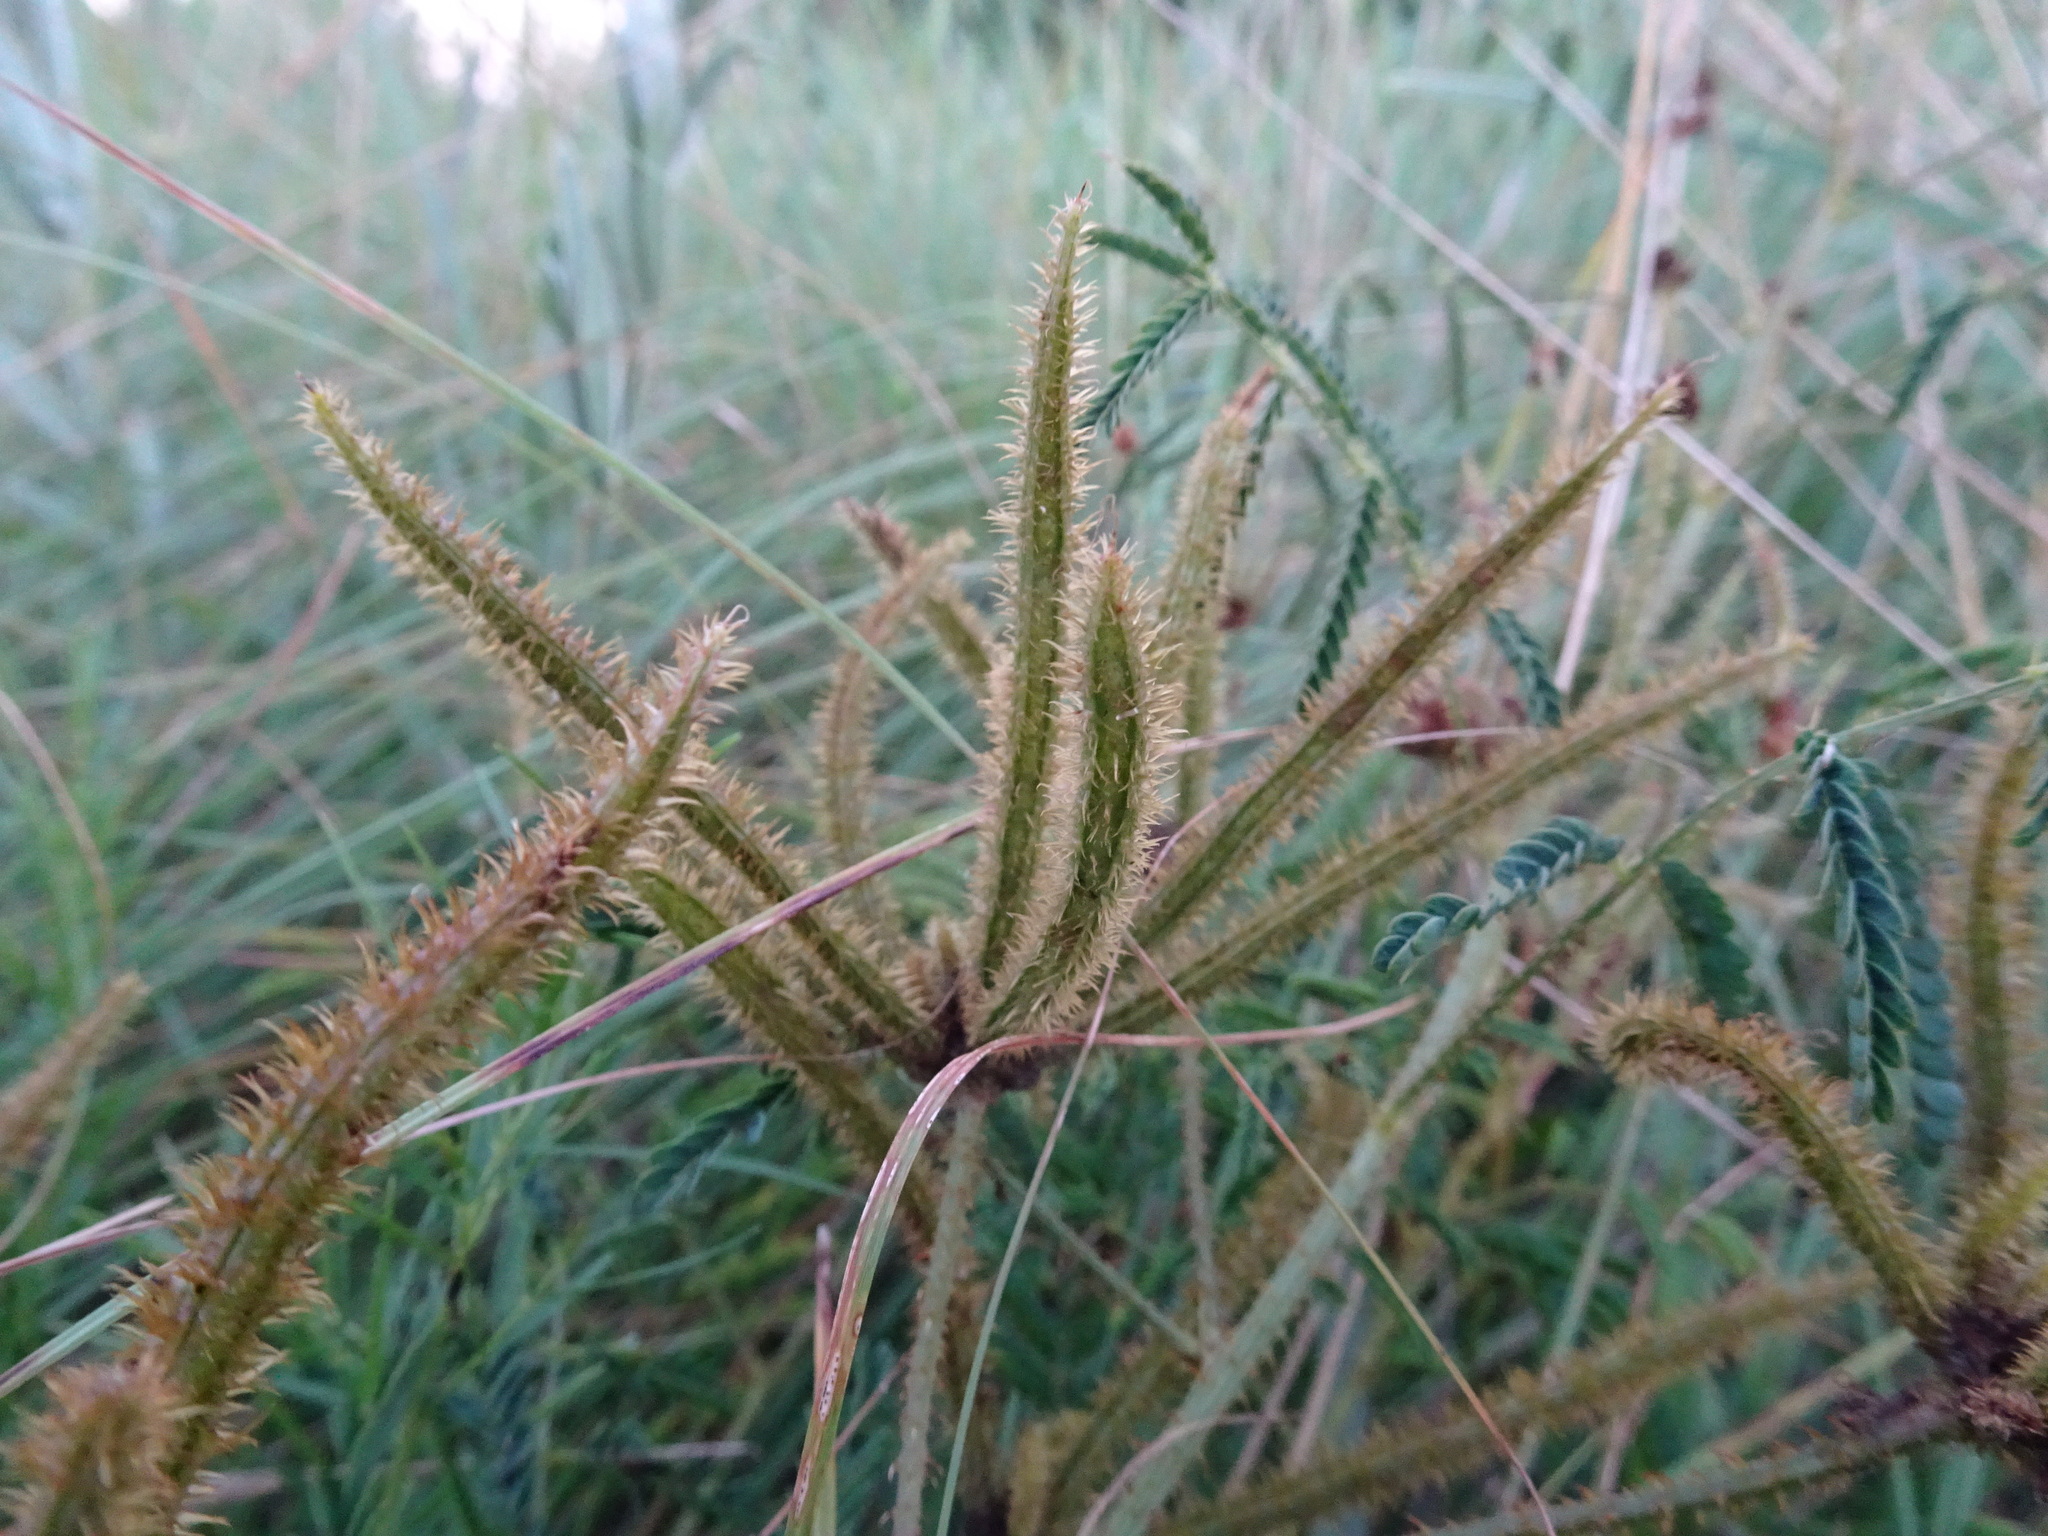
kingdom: Plantae
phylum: Tracheophyta
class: Magnoliopsida
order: Fabales
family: Fabaceae
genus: Mimosa
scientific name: Mimosa quadrivalvis
